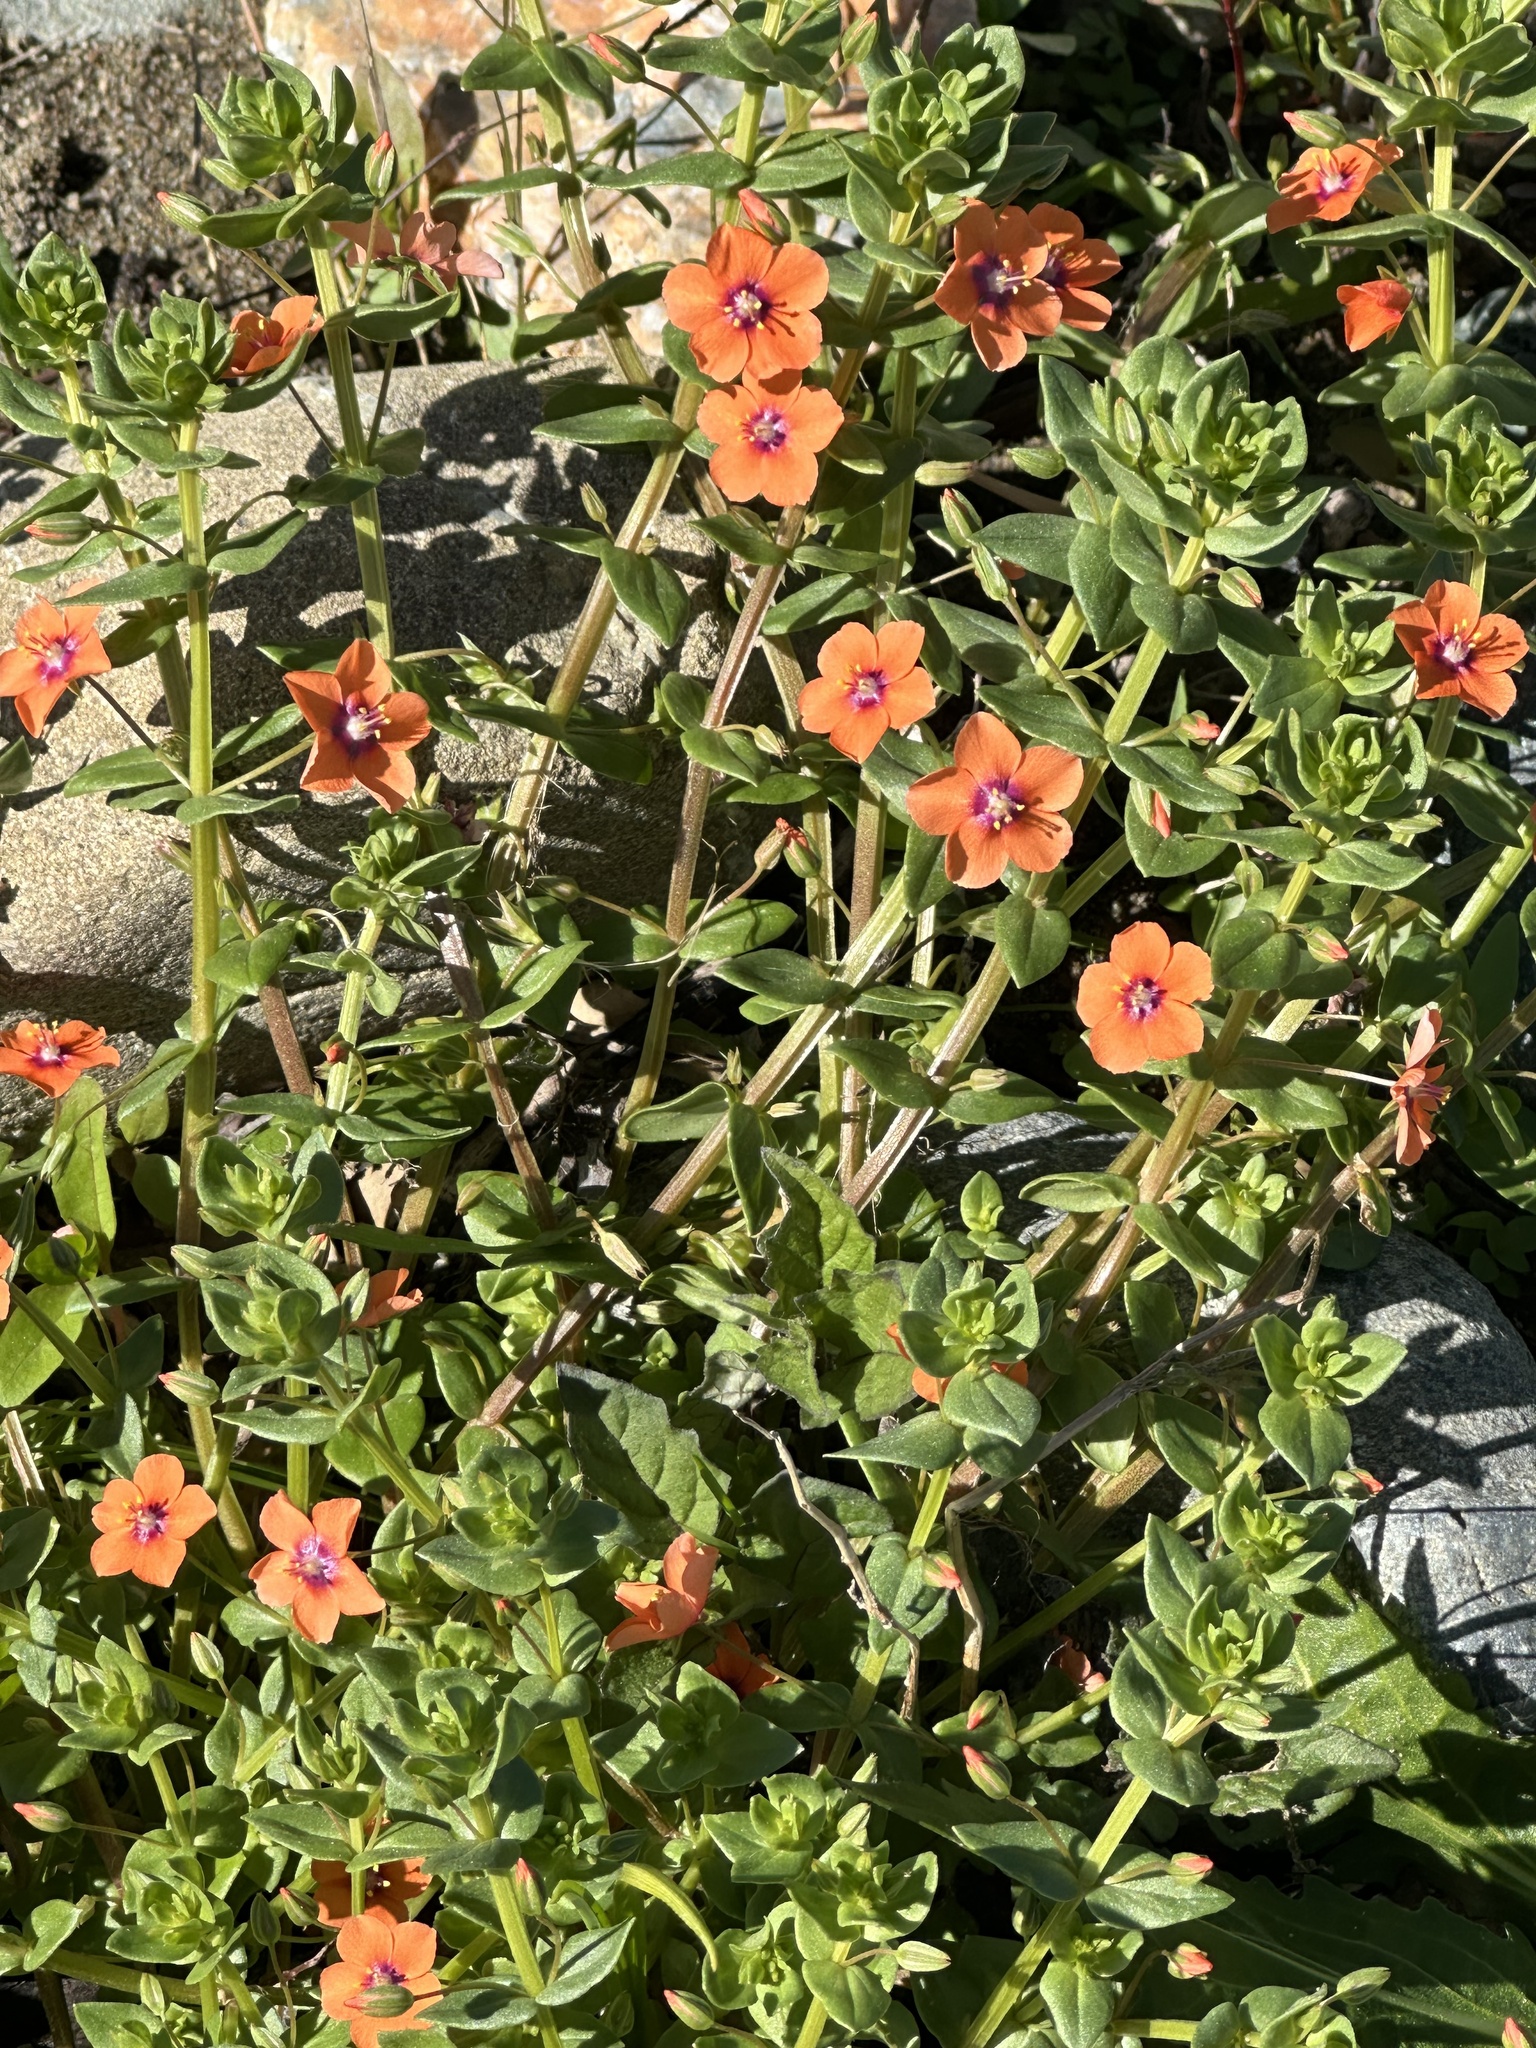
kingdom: Plantae
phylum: Tracheophyta
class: Magnoliopsida
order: Ericales
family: Primulaceae
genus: Lysimachia
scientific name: Lysimachia arvensis
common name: Scarlet pimpernel
